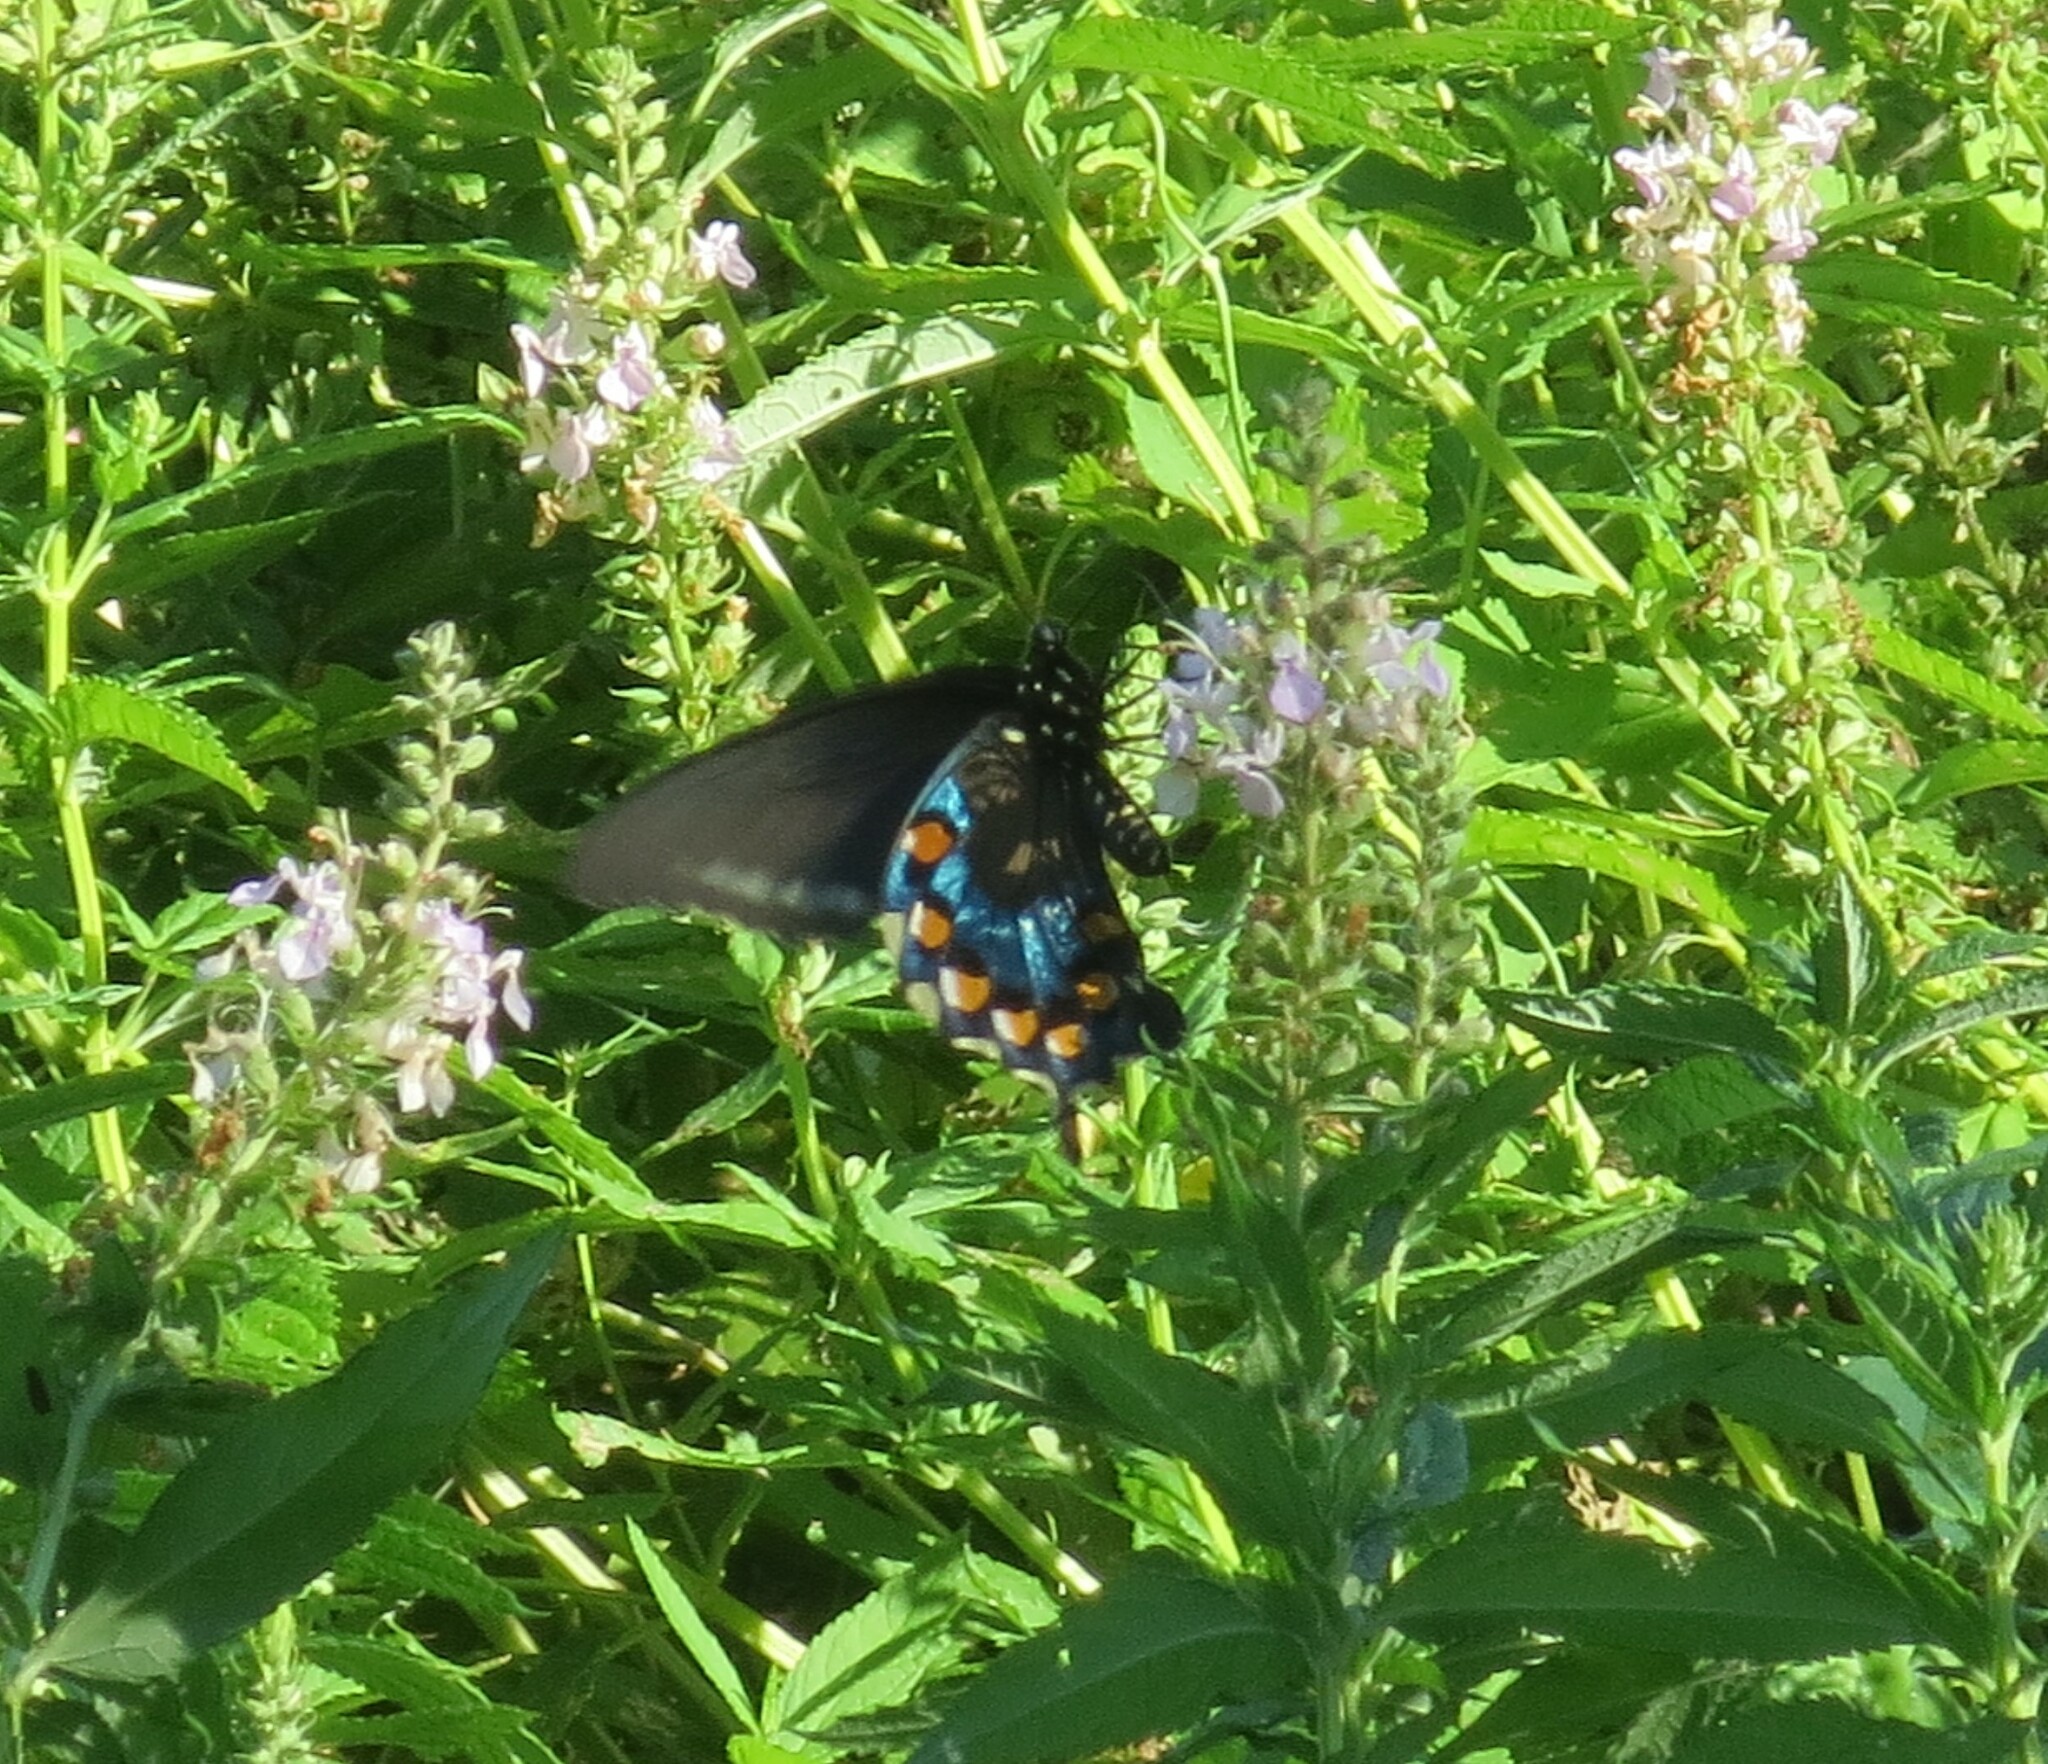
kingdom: Animalia
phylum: Arthropoda
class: Insecta
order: Lepidoptera
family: Papilionidae
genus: Battus
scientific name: Battus philenor
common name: Pipevine swallowtail
